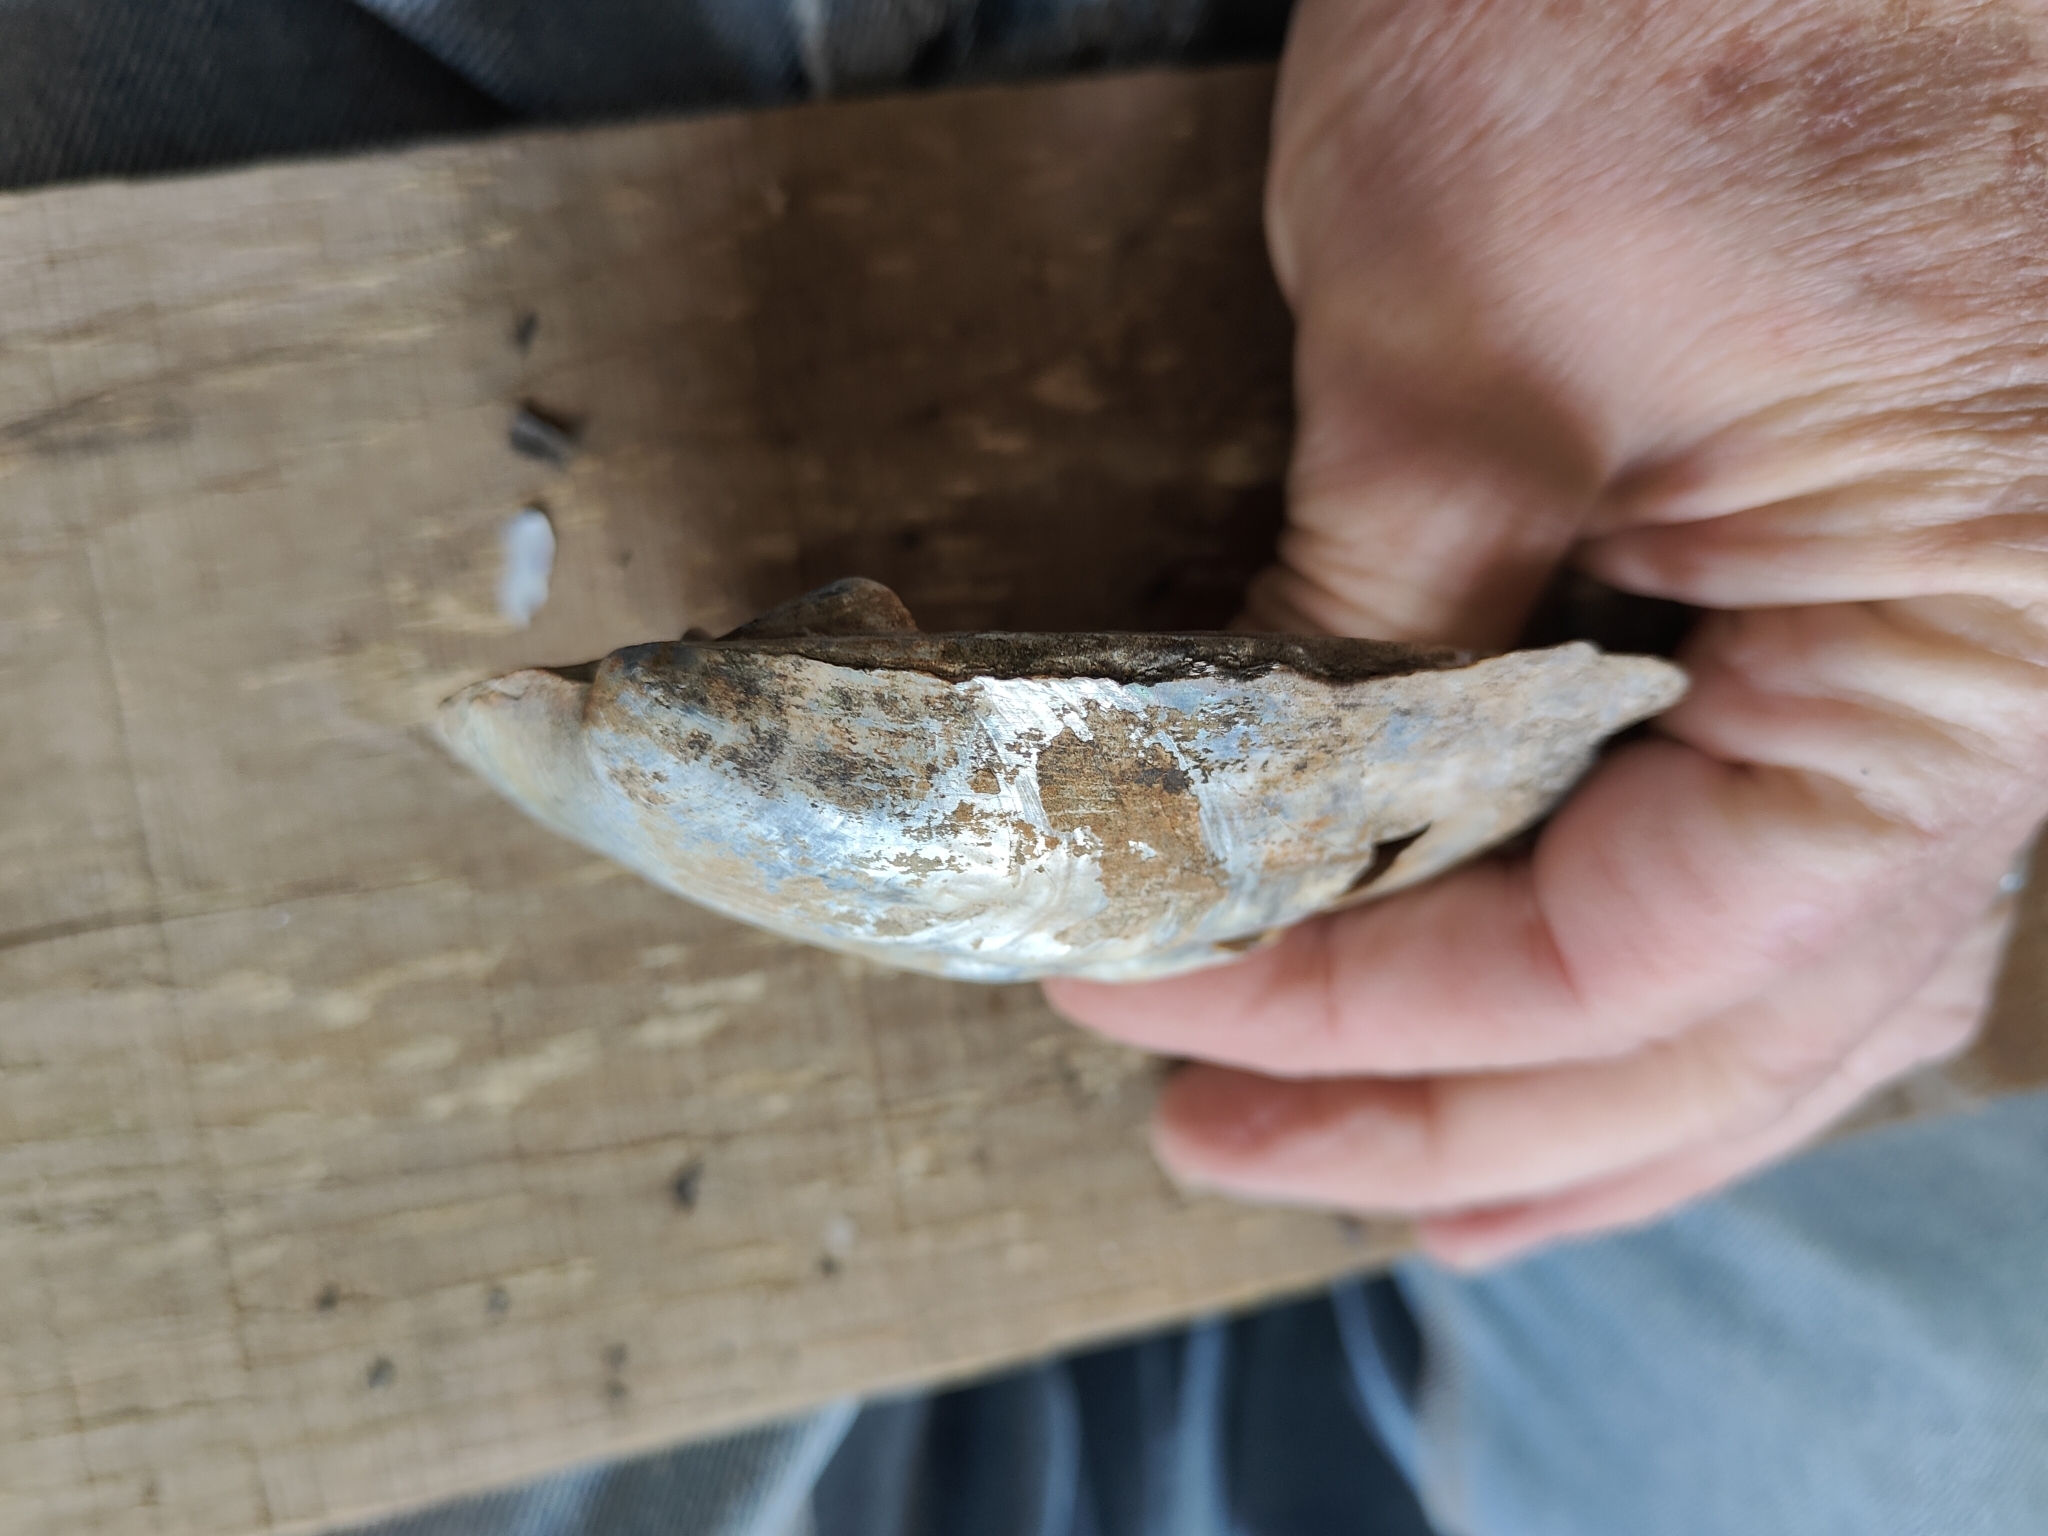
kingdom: Animalia
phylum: Mollusca
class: Bivalvia
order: Unionida
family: Unionidae
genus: Amblema
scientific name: Amblema plicata
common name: Threeridge
